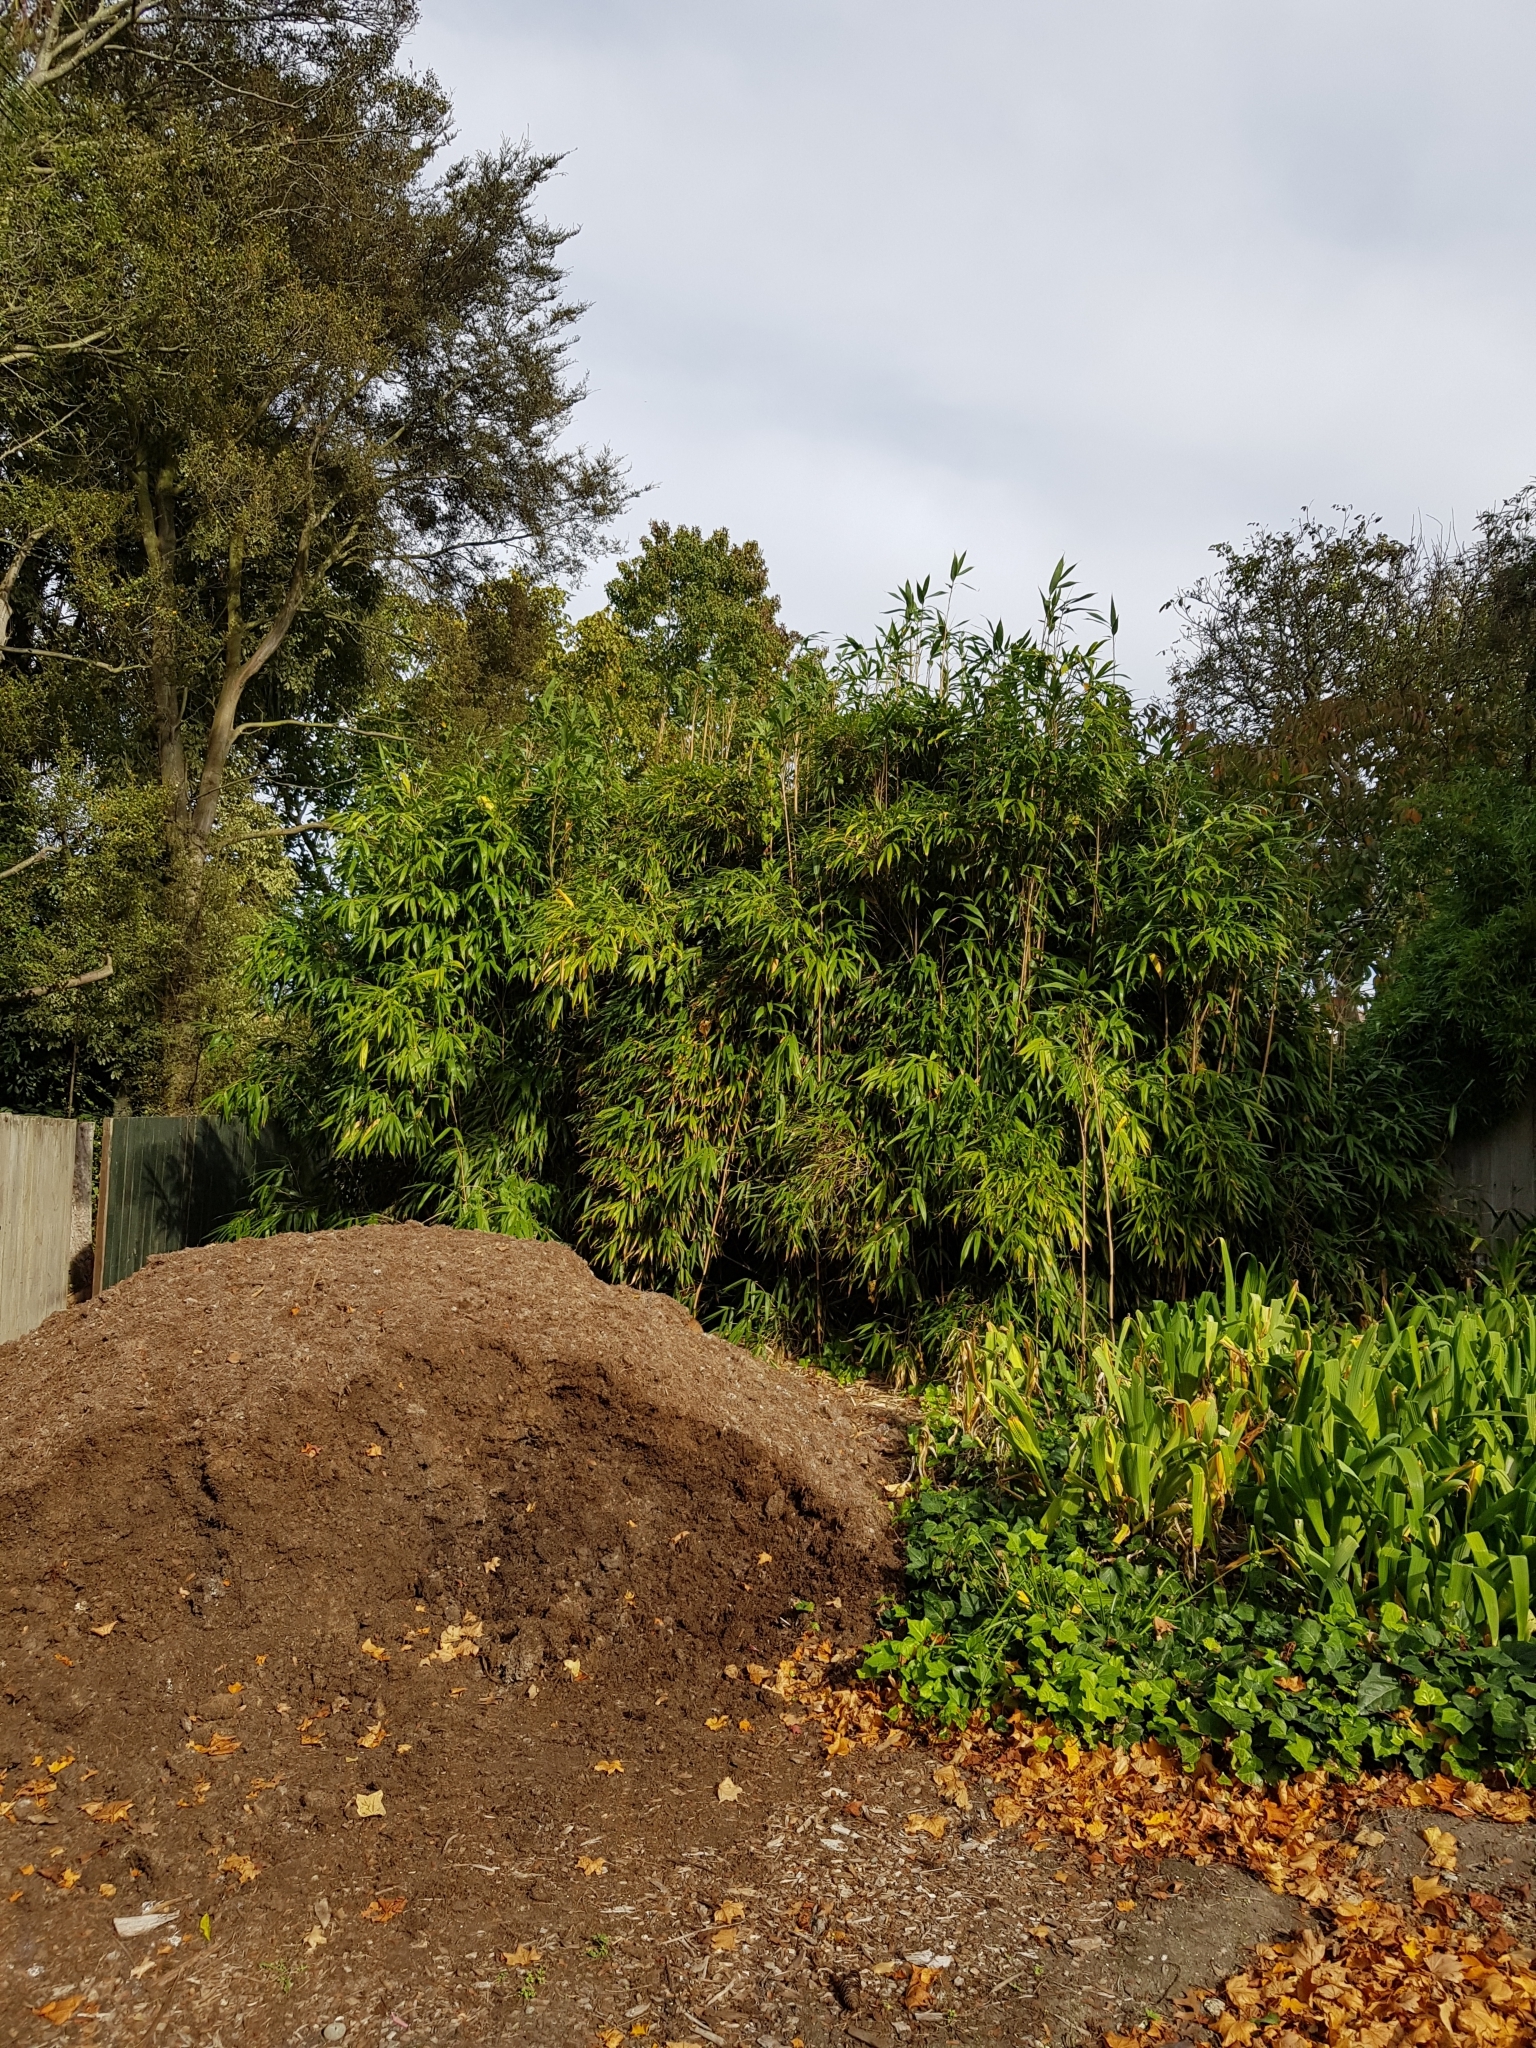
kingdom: Plantae
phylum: Tracheophyta
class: Liliopsida
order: Poales
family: Poaceae
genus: Pseudosasa
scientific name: Pseudosasa japonica
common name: Arrow bamboo
